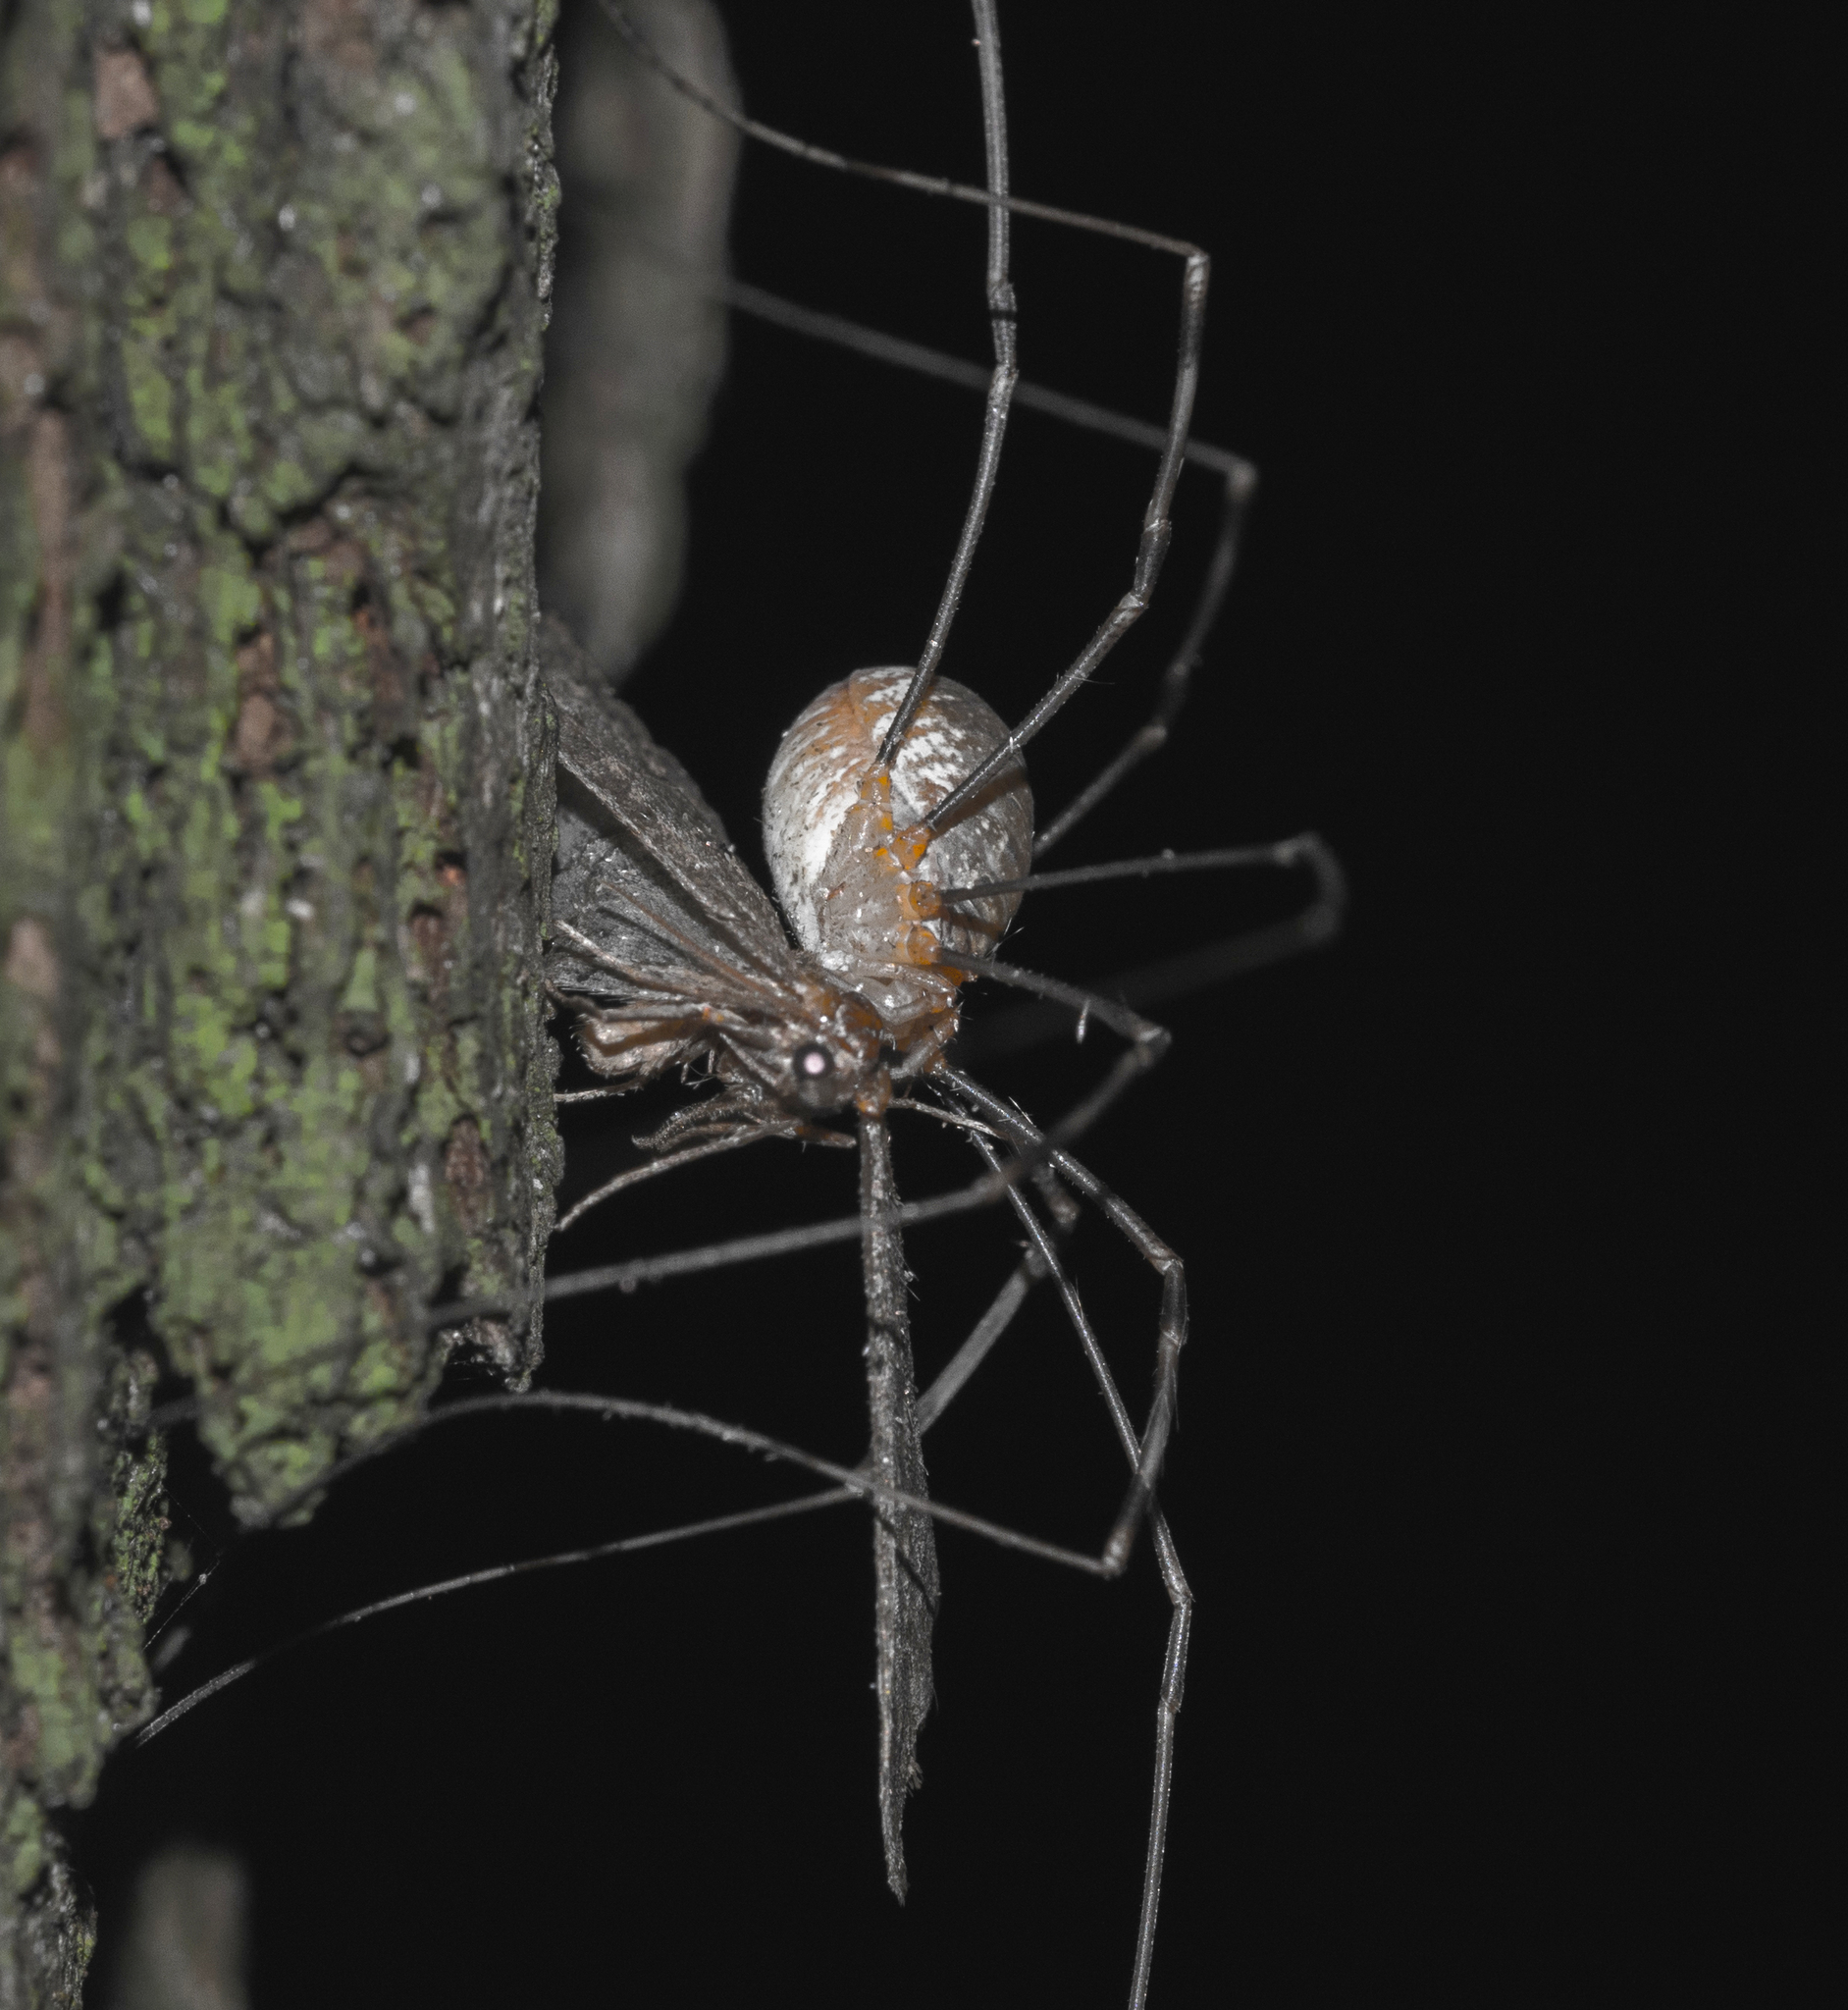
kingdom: Animalia
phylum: Arthropoda
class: Arachnida
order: Opiliones
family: Phalangiidae
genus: Opilio
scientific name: Opilio canestrinii
